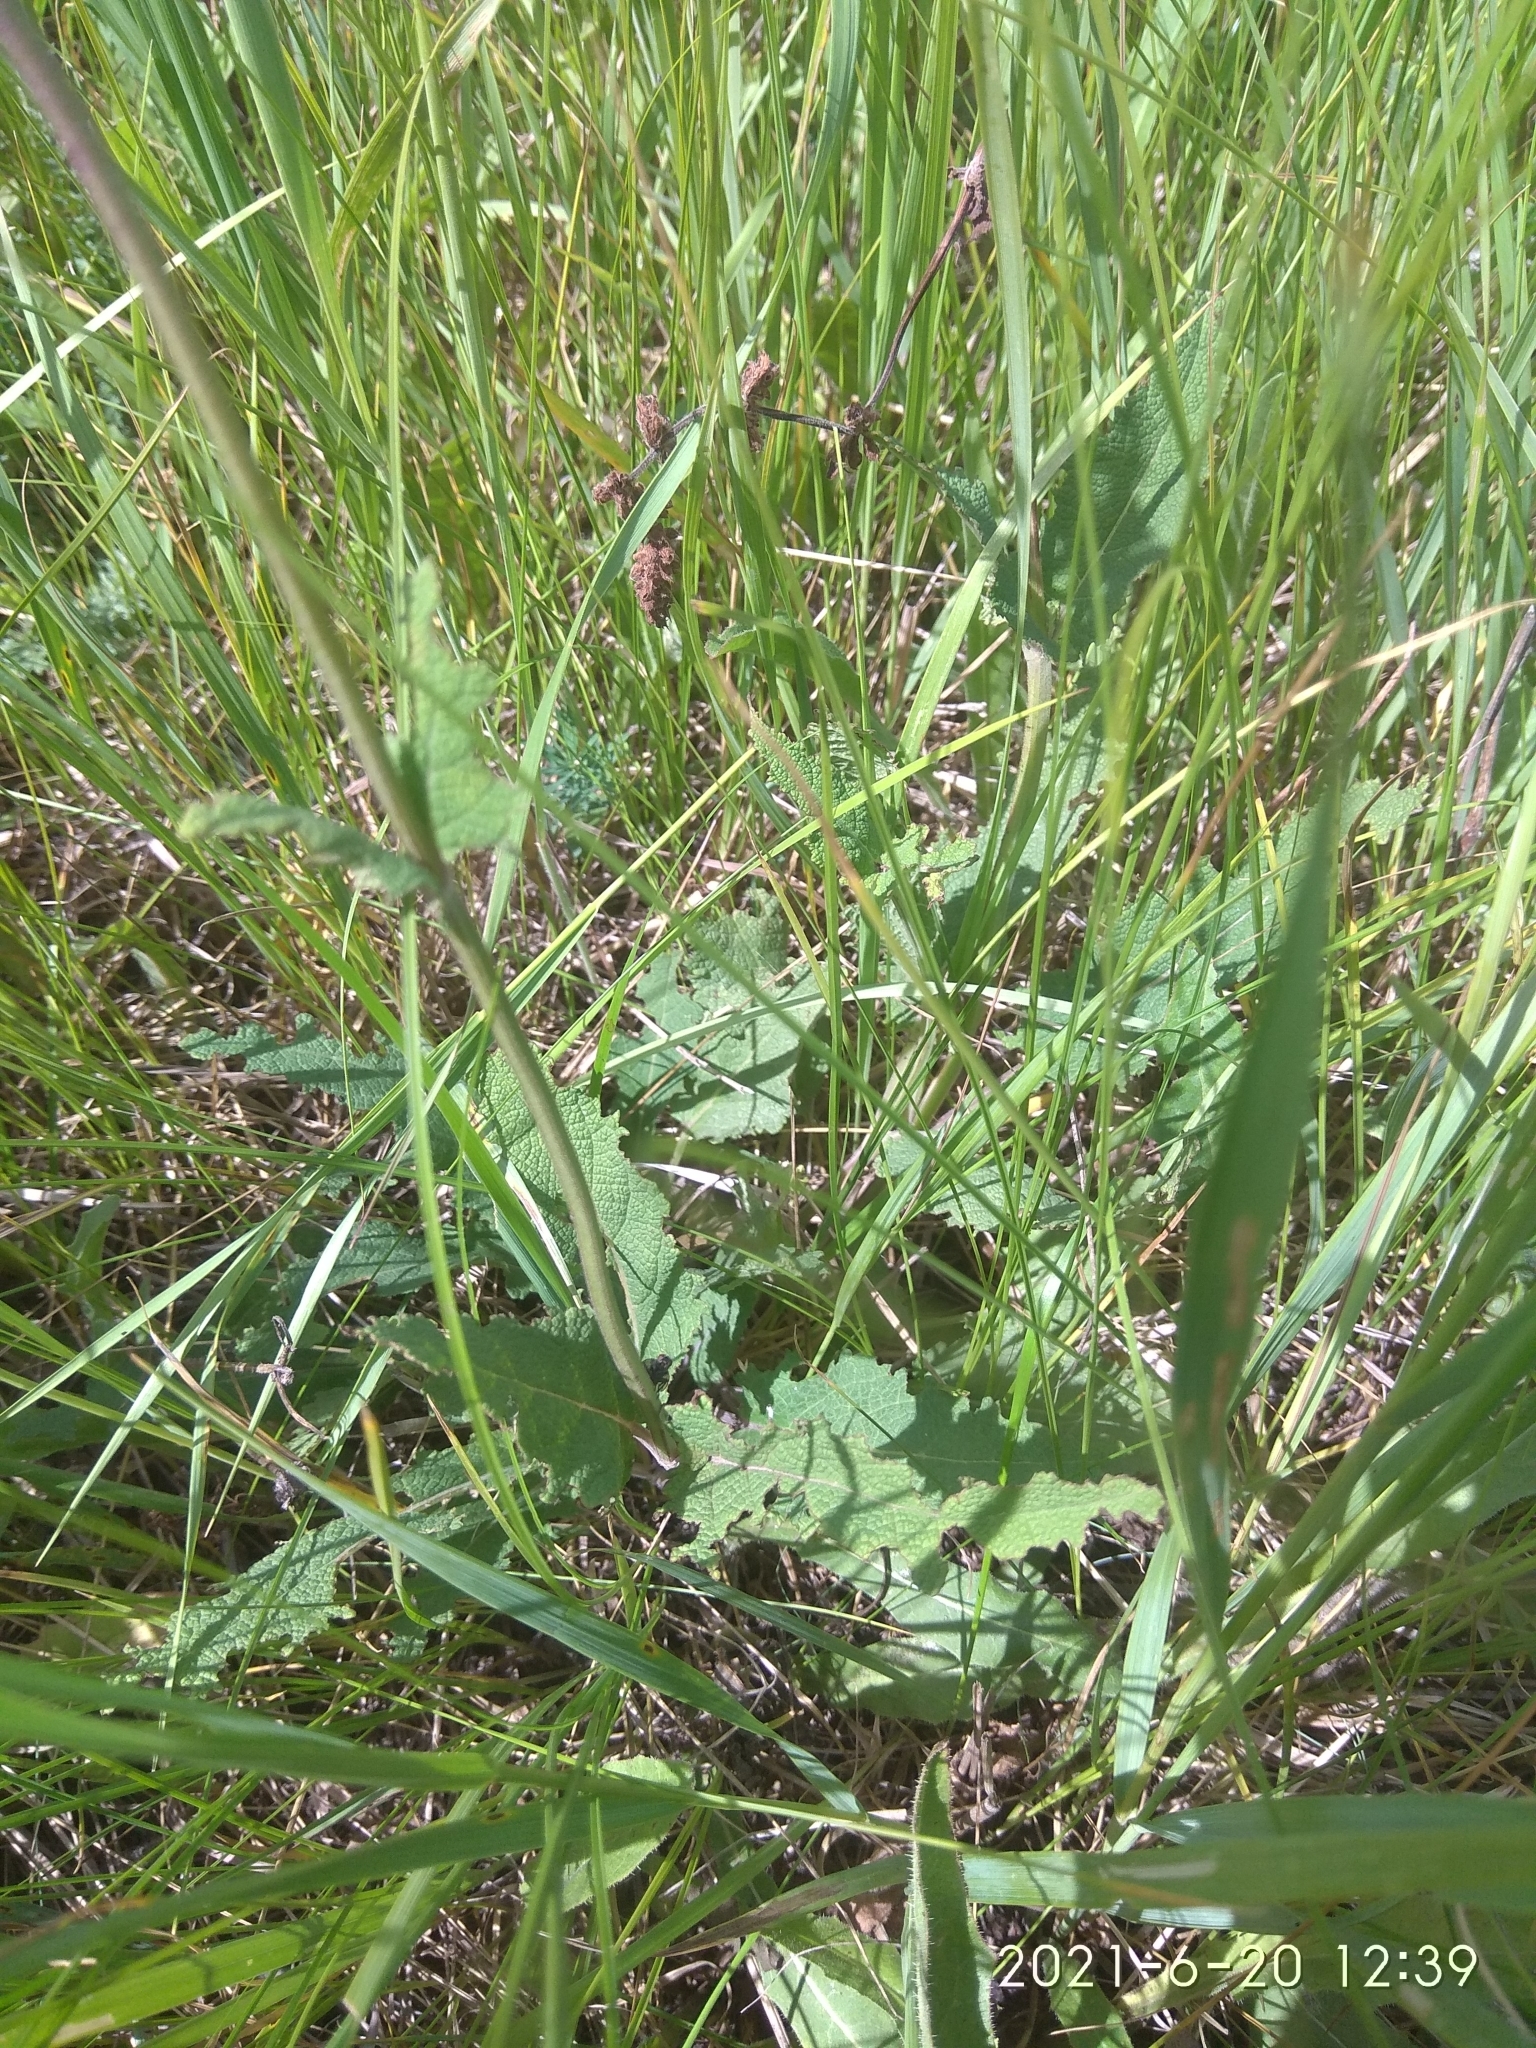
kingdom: Plantae
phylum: Tracheophyta
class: Magnoliopsida
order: Lamiales
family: Lamiaceae
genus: Salvia
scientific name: Salvia dumetorum
